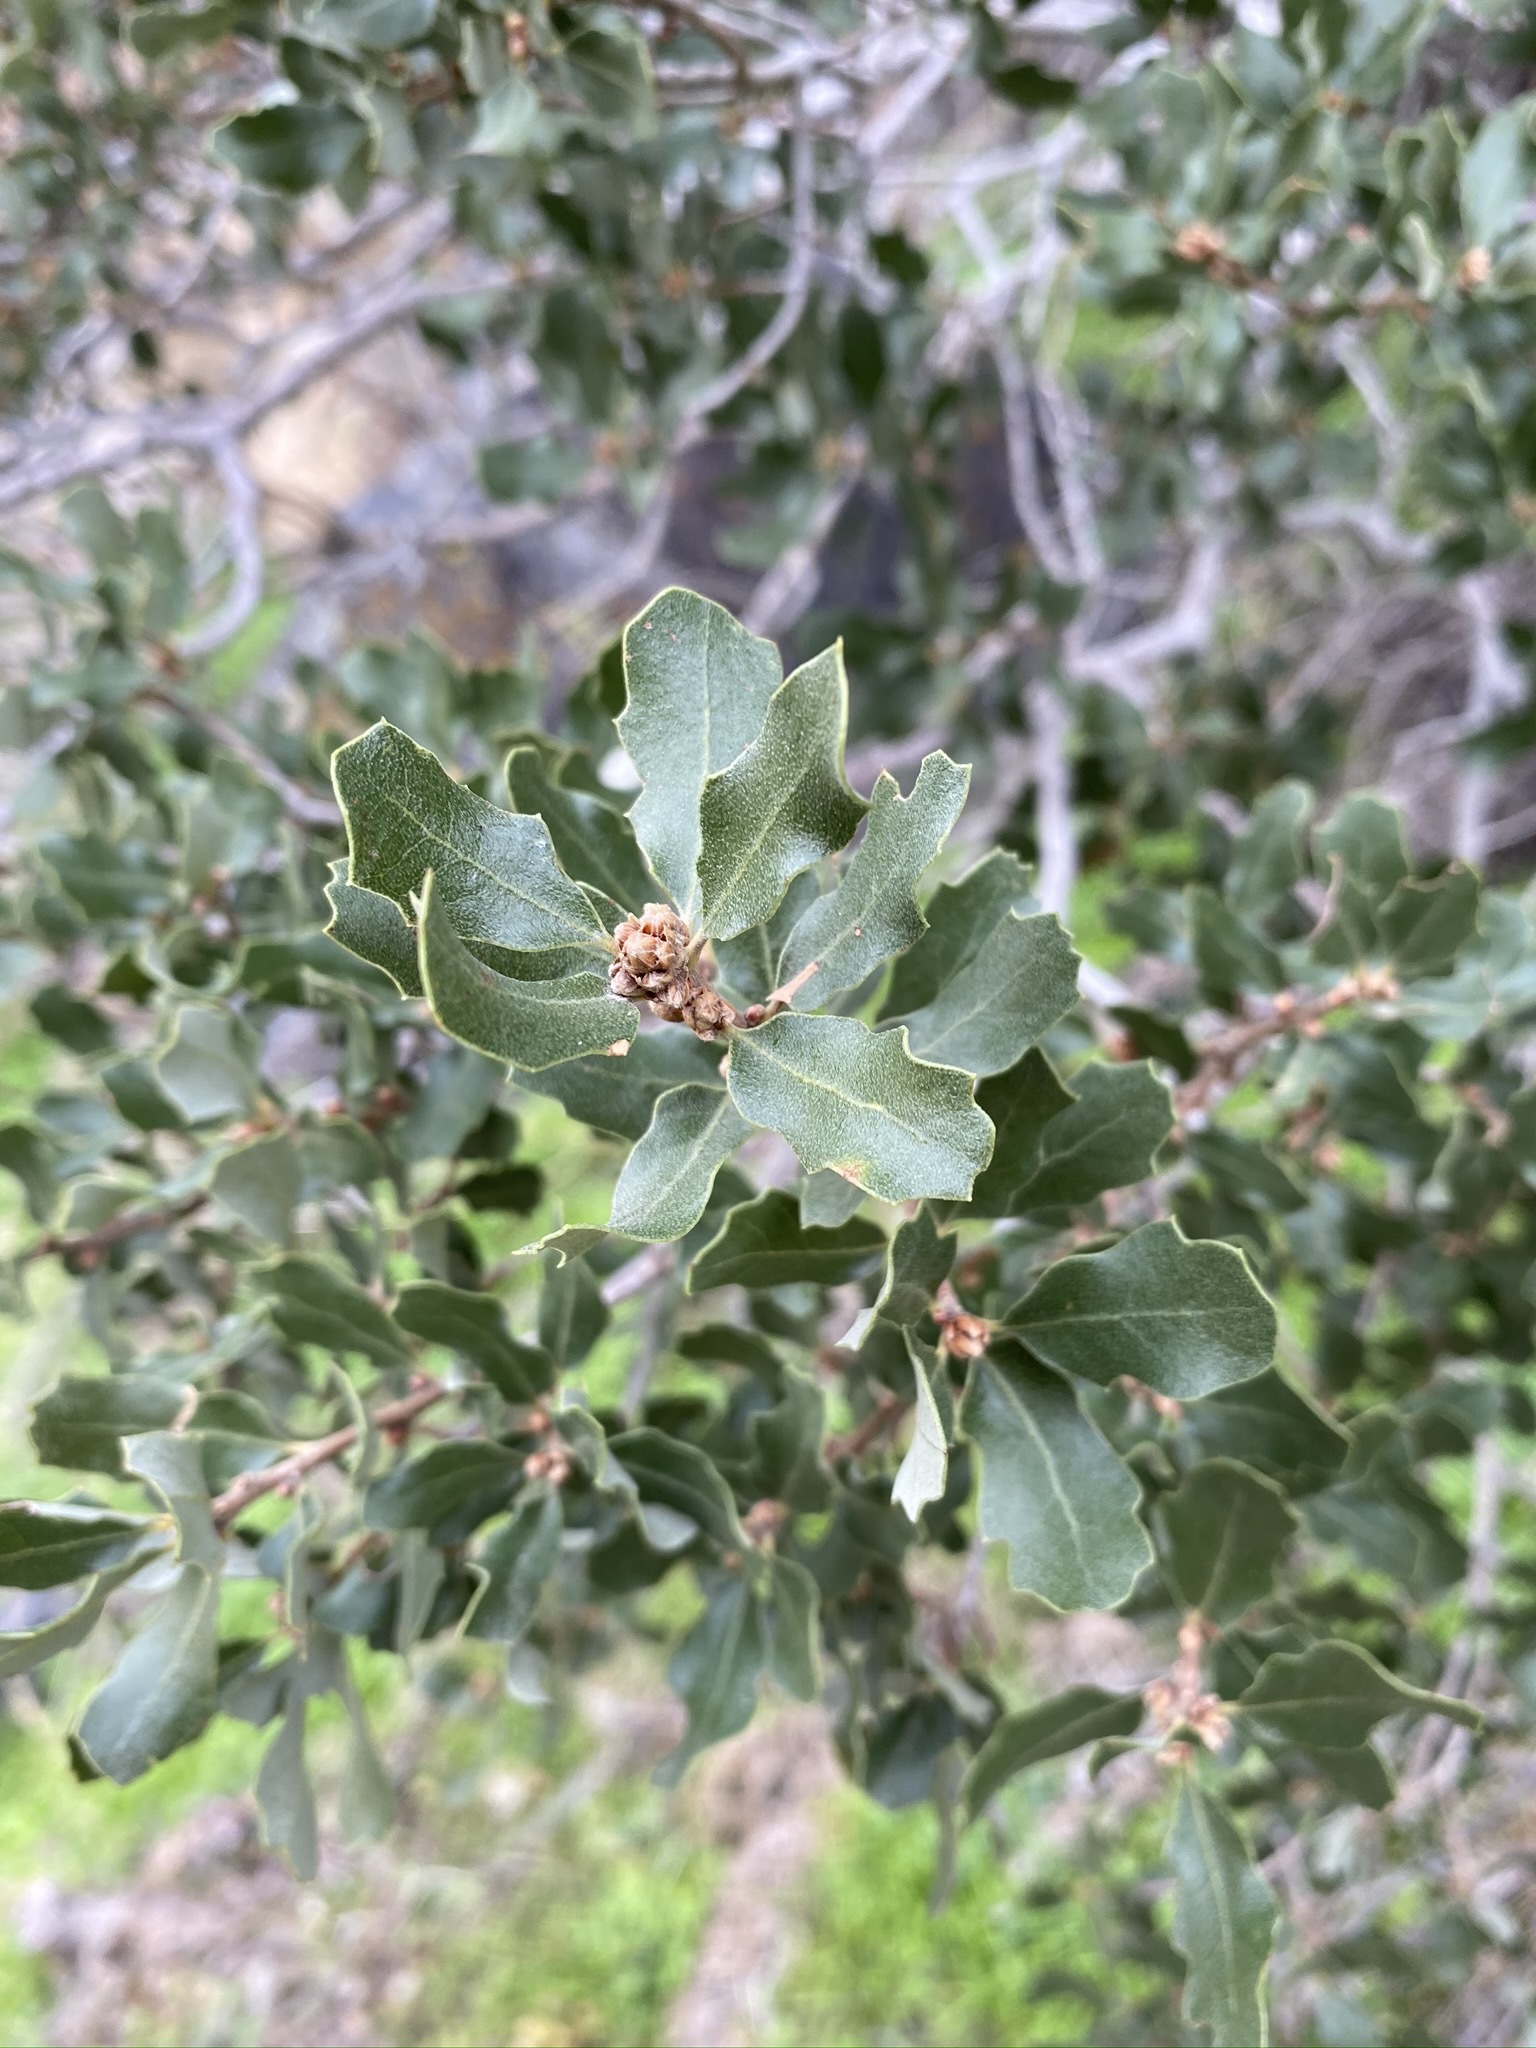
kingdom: Plantae
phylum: Tracheophyta
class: Magnoliopsida
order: Fagales
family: Fagaceae
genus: Quercus
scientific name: Quercus cornelius-mulleri
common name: Muller oak
